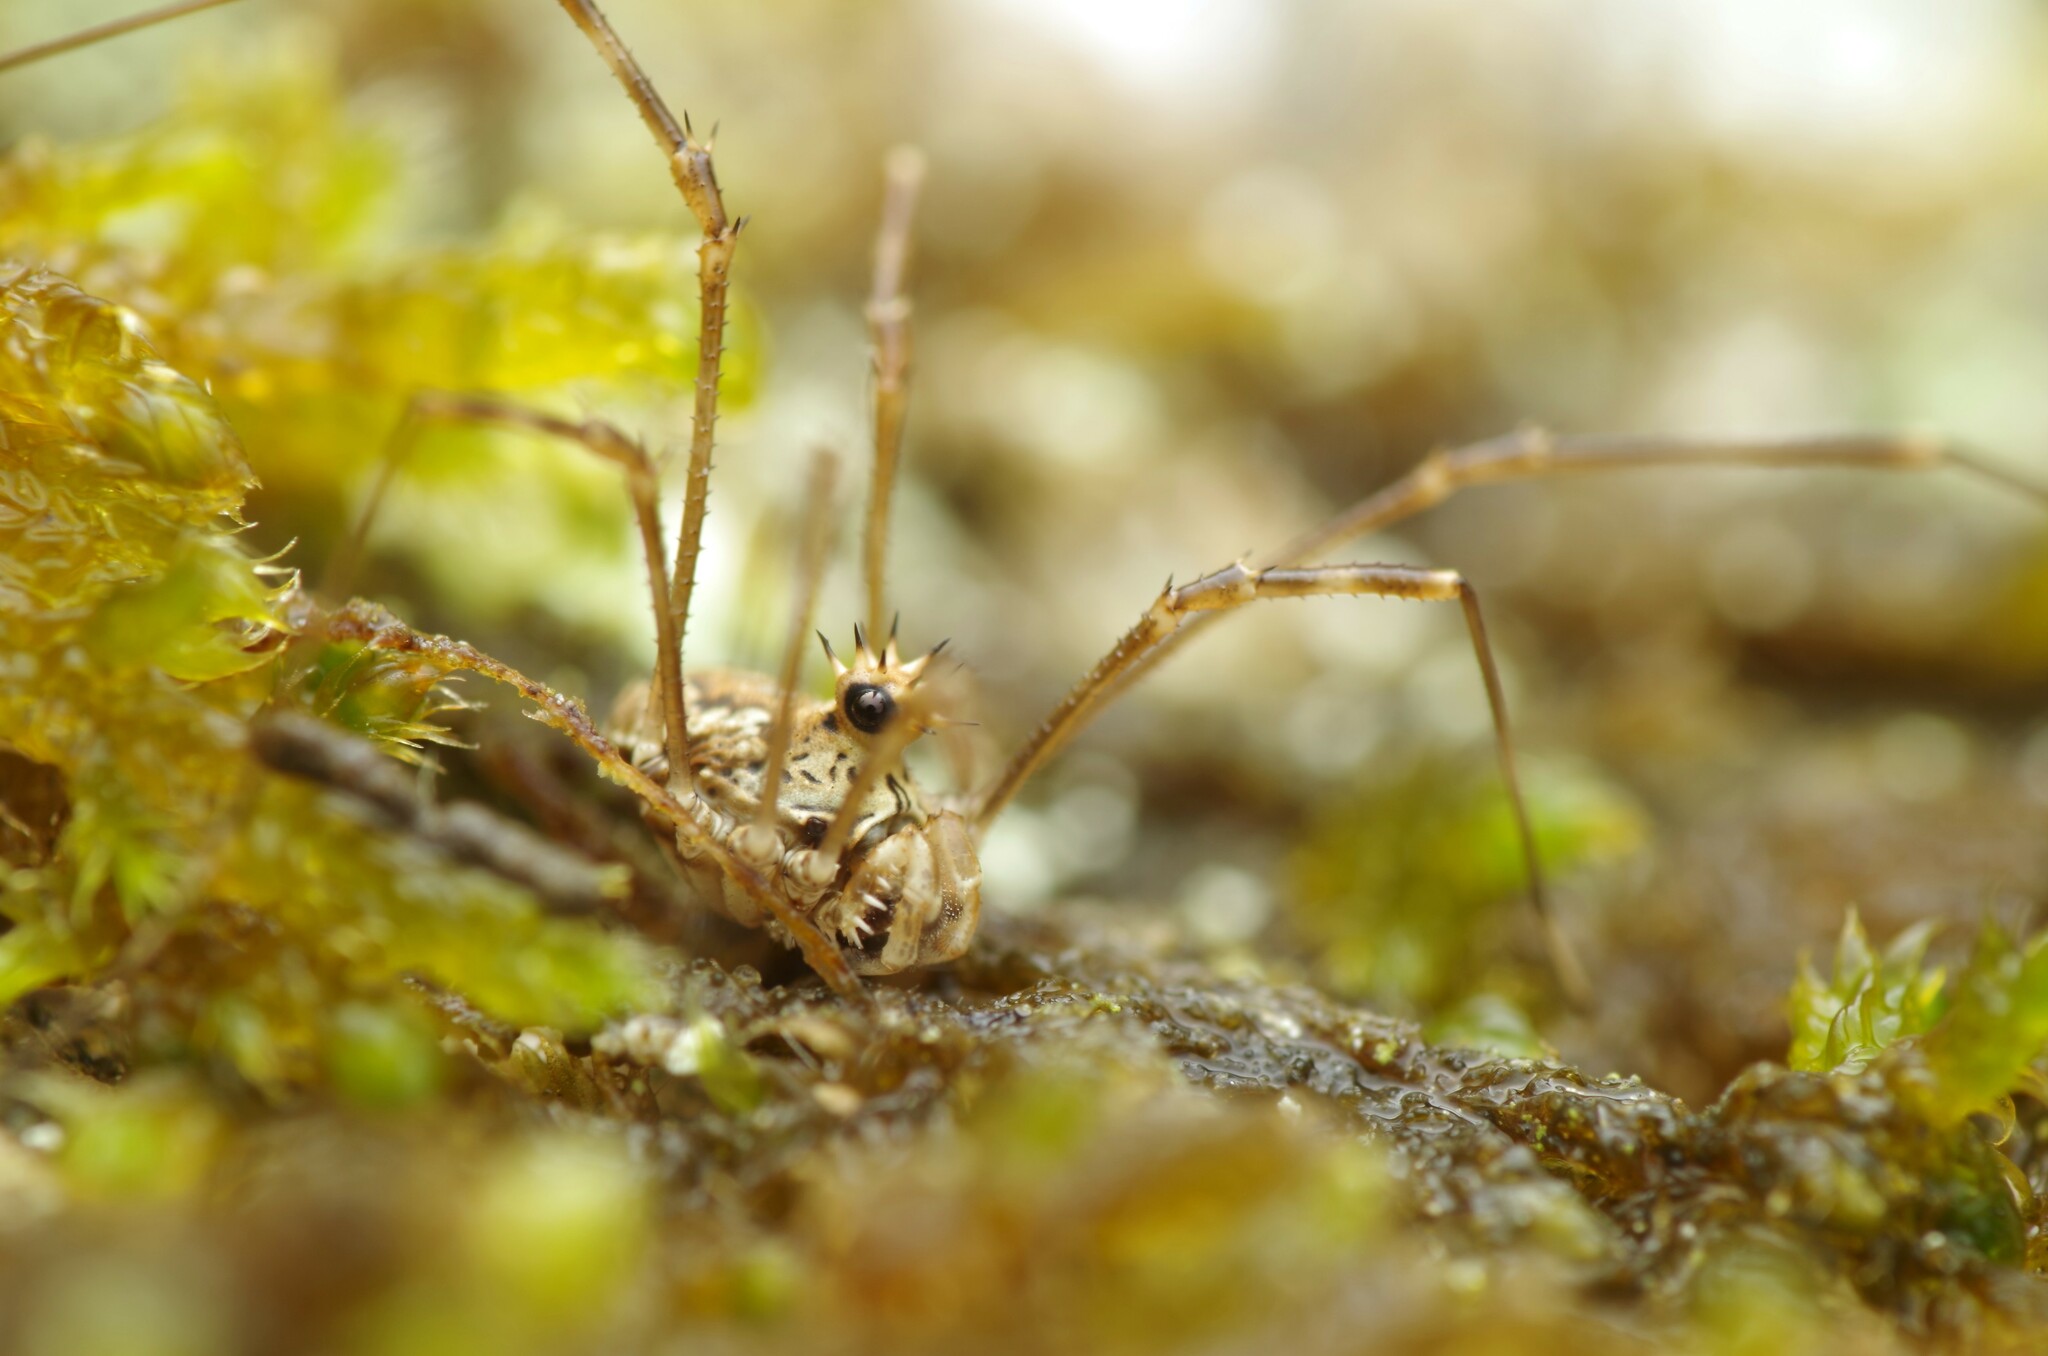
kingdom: Animalia
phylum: Arthropoda
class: Arachnida
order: Opiliones
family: Phalangiidae
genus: Megabunus
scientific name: Megabunus diadema
